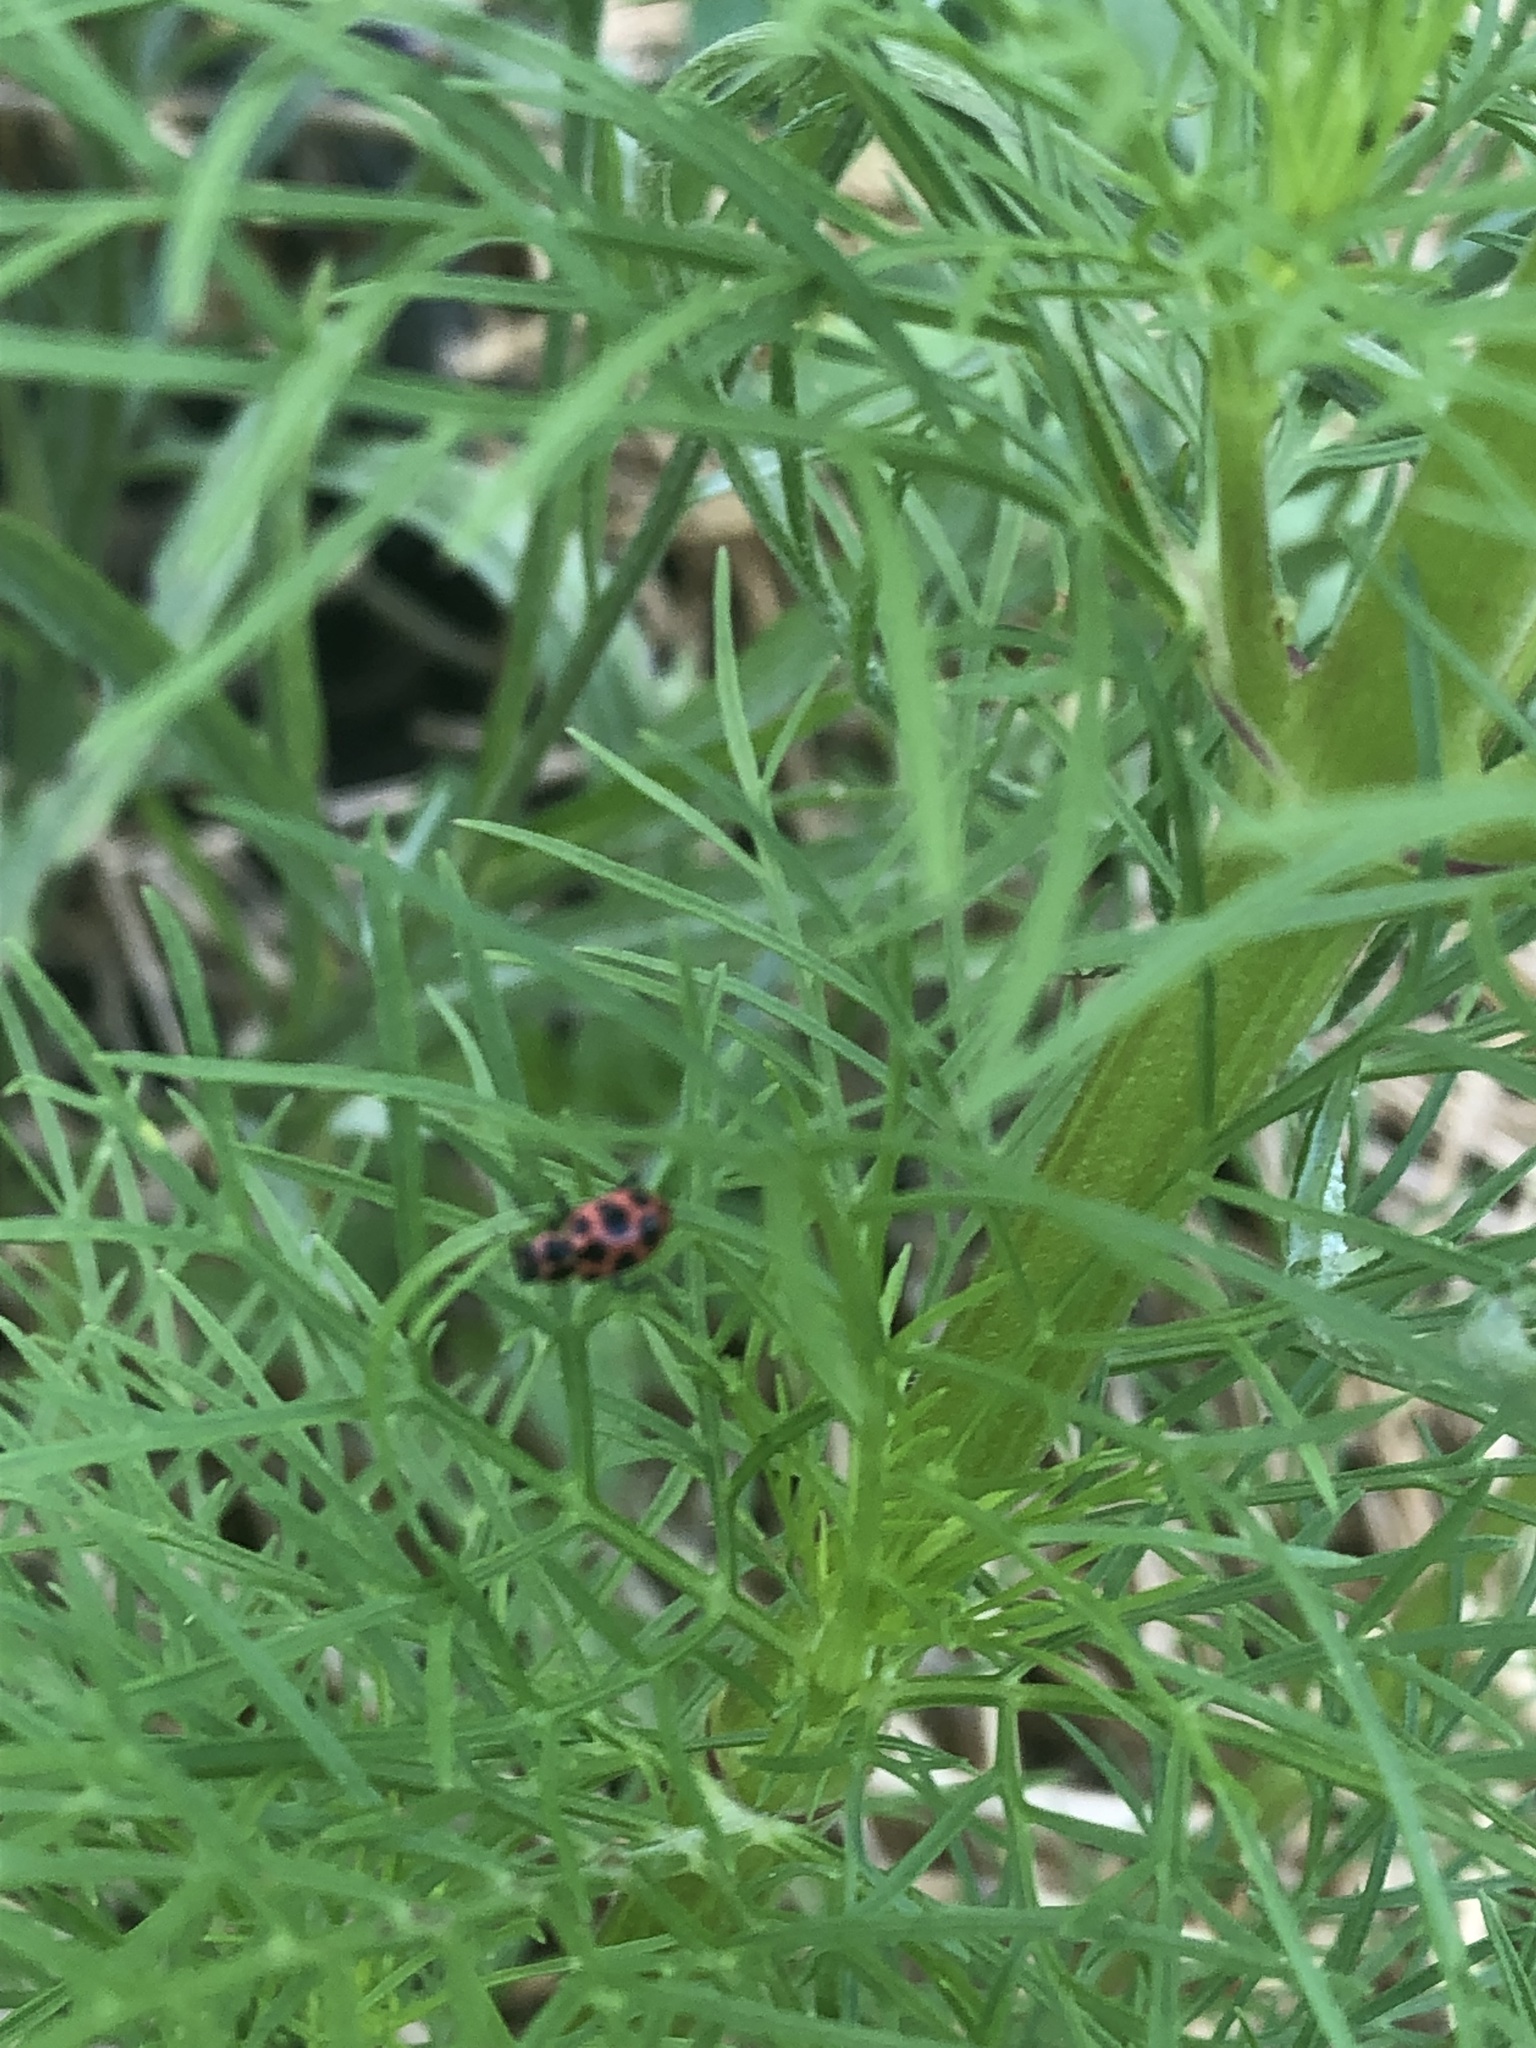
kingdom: Animalia
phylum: Arthropoda
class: Insecta
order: Coleoptera
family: Coccinellidae
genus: Coleomegilla
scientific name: Coleomegilla maculata
